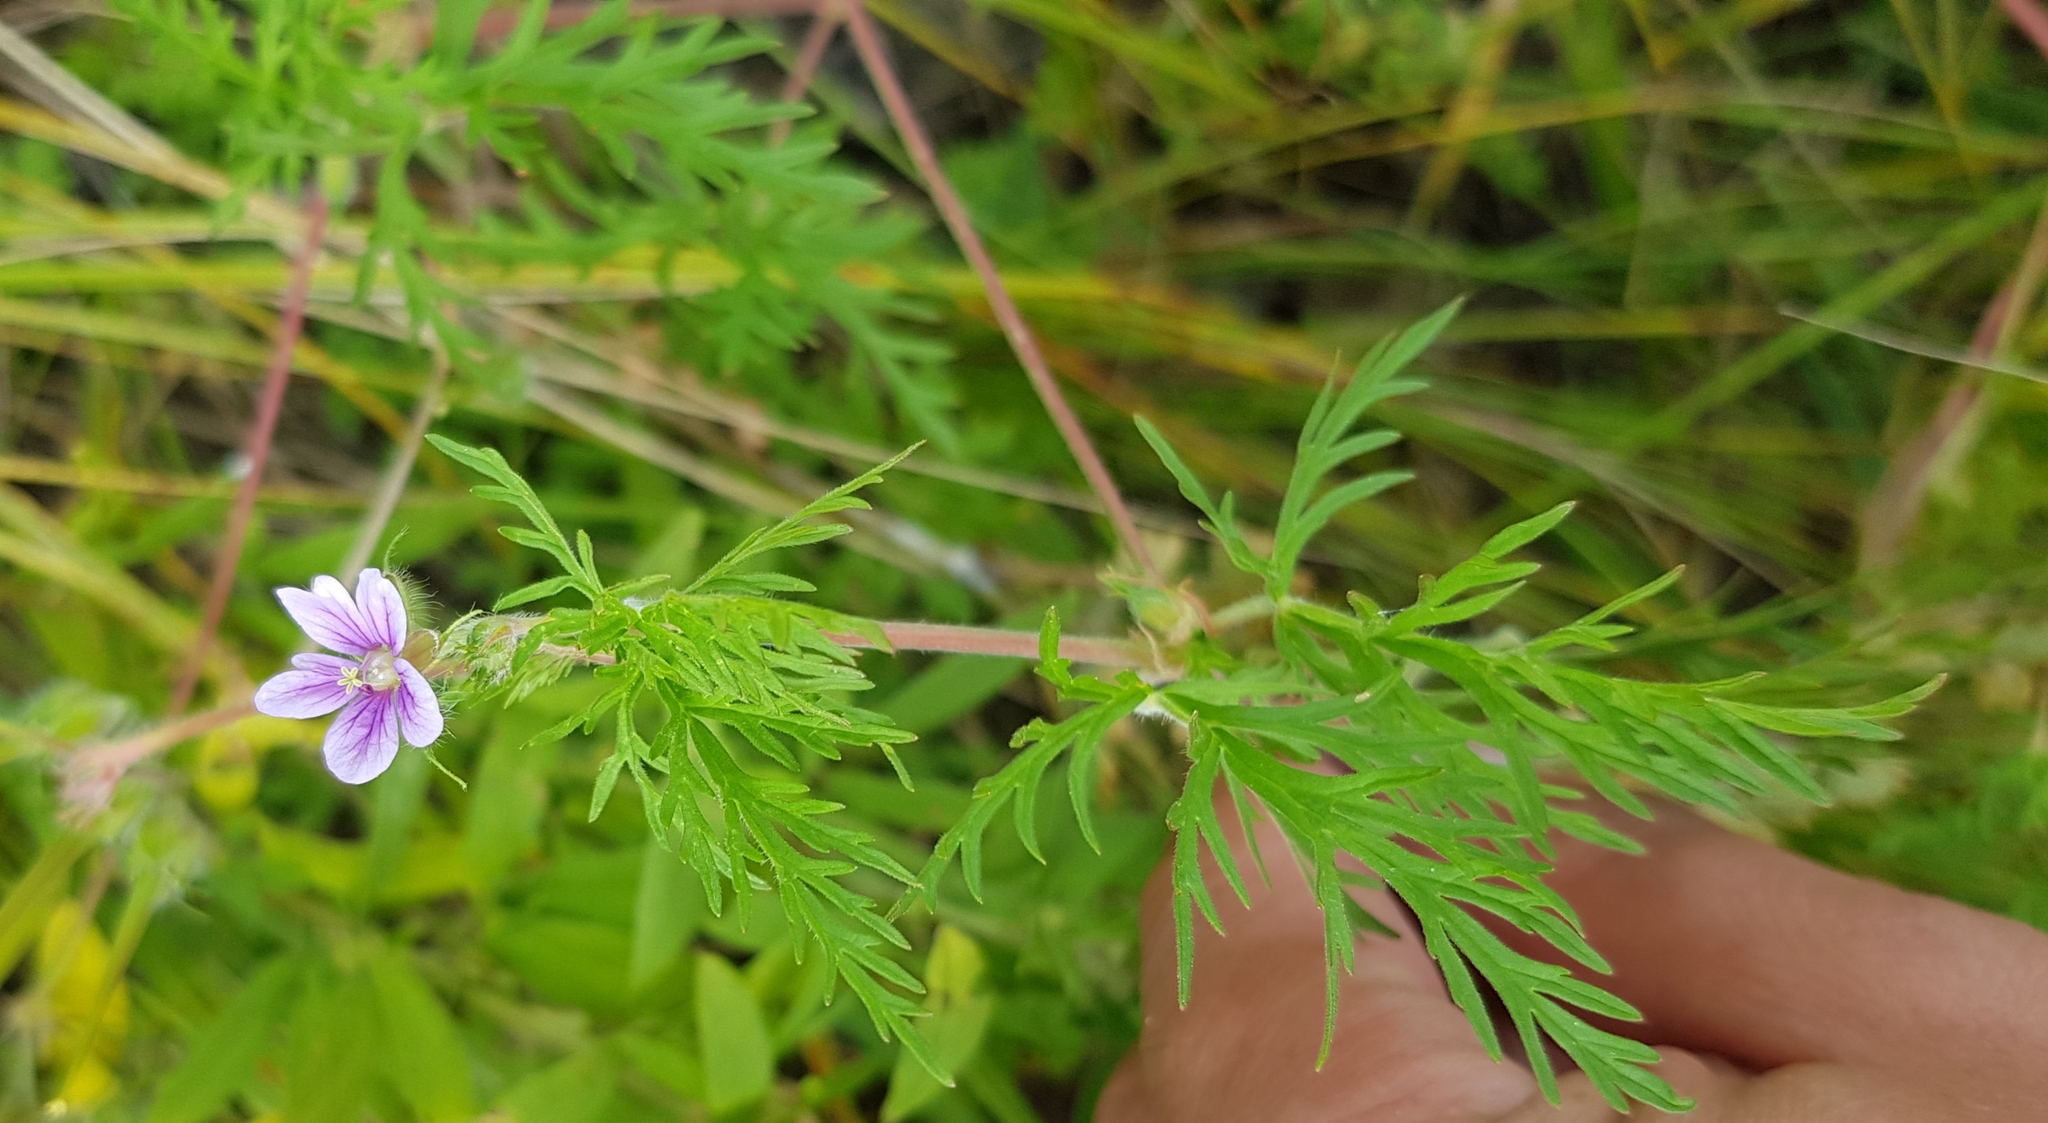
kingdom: Plantae
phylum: Tracheophyta
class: Magnoliopsida
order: Geraniales
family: Geraniaceae
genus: Erodium
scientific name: Erodium stephanianum
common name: Stephen's stork's bill
